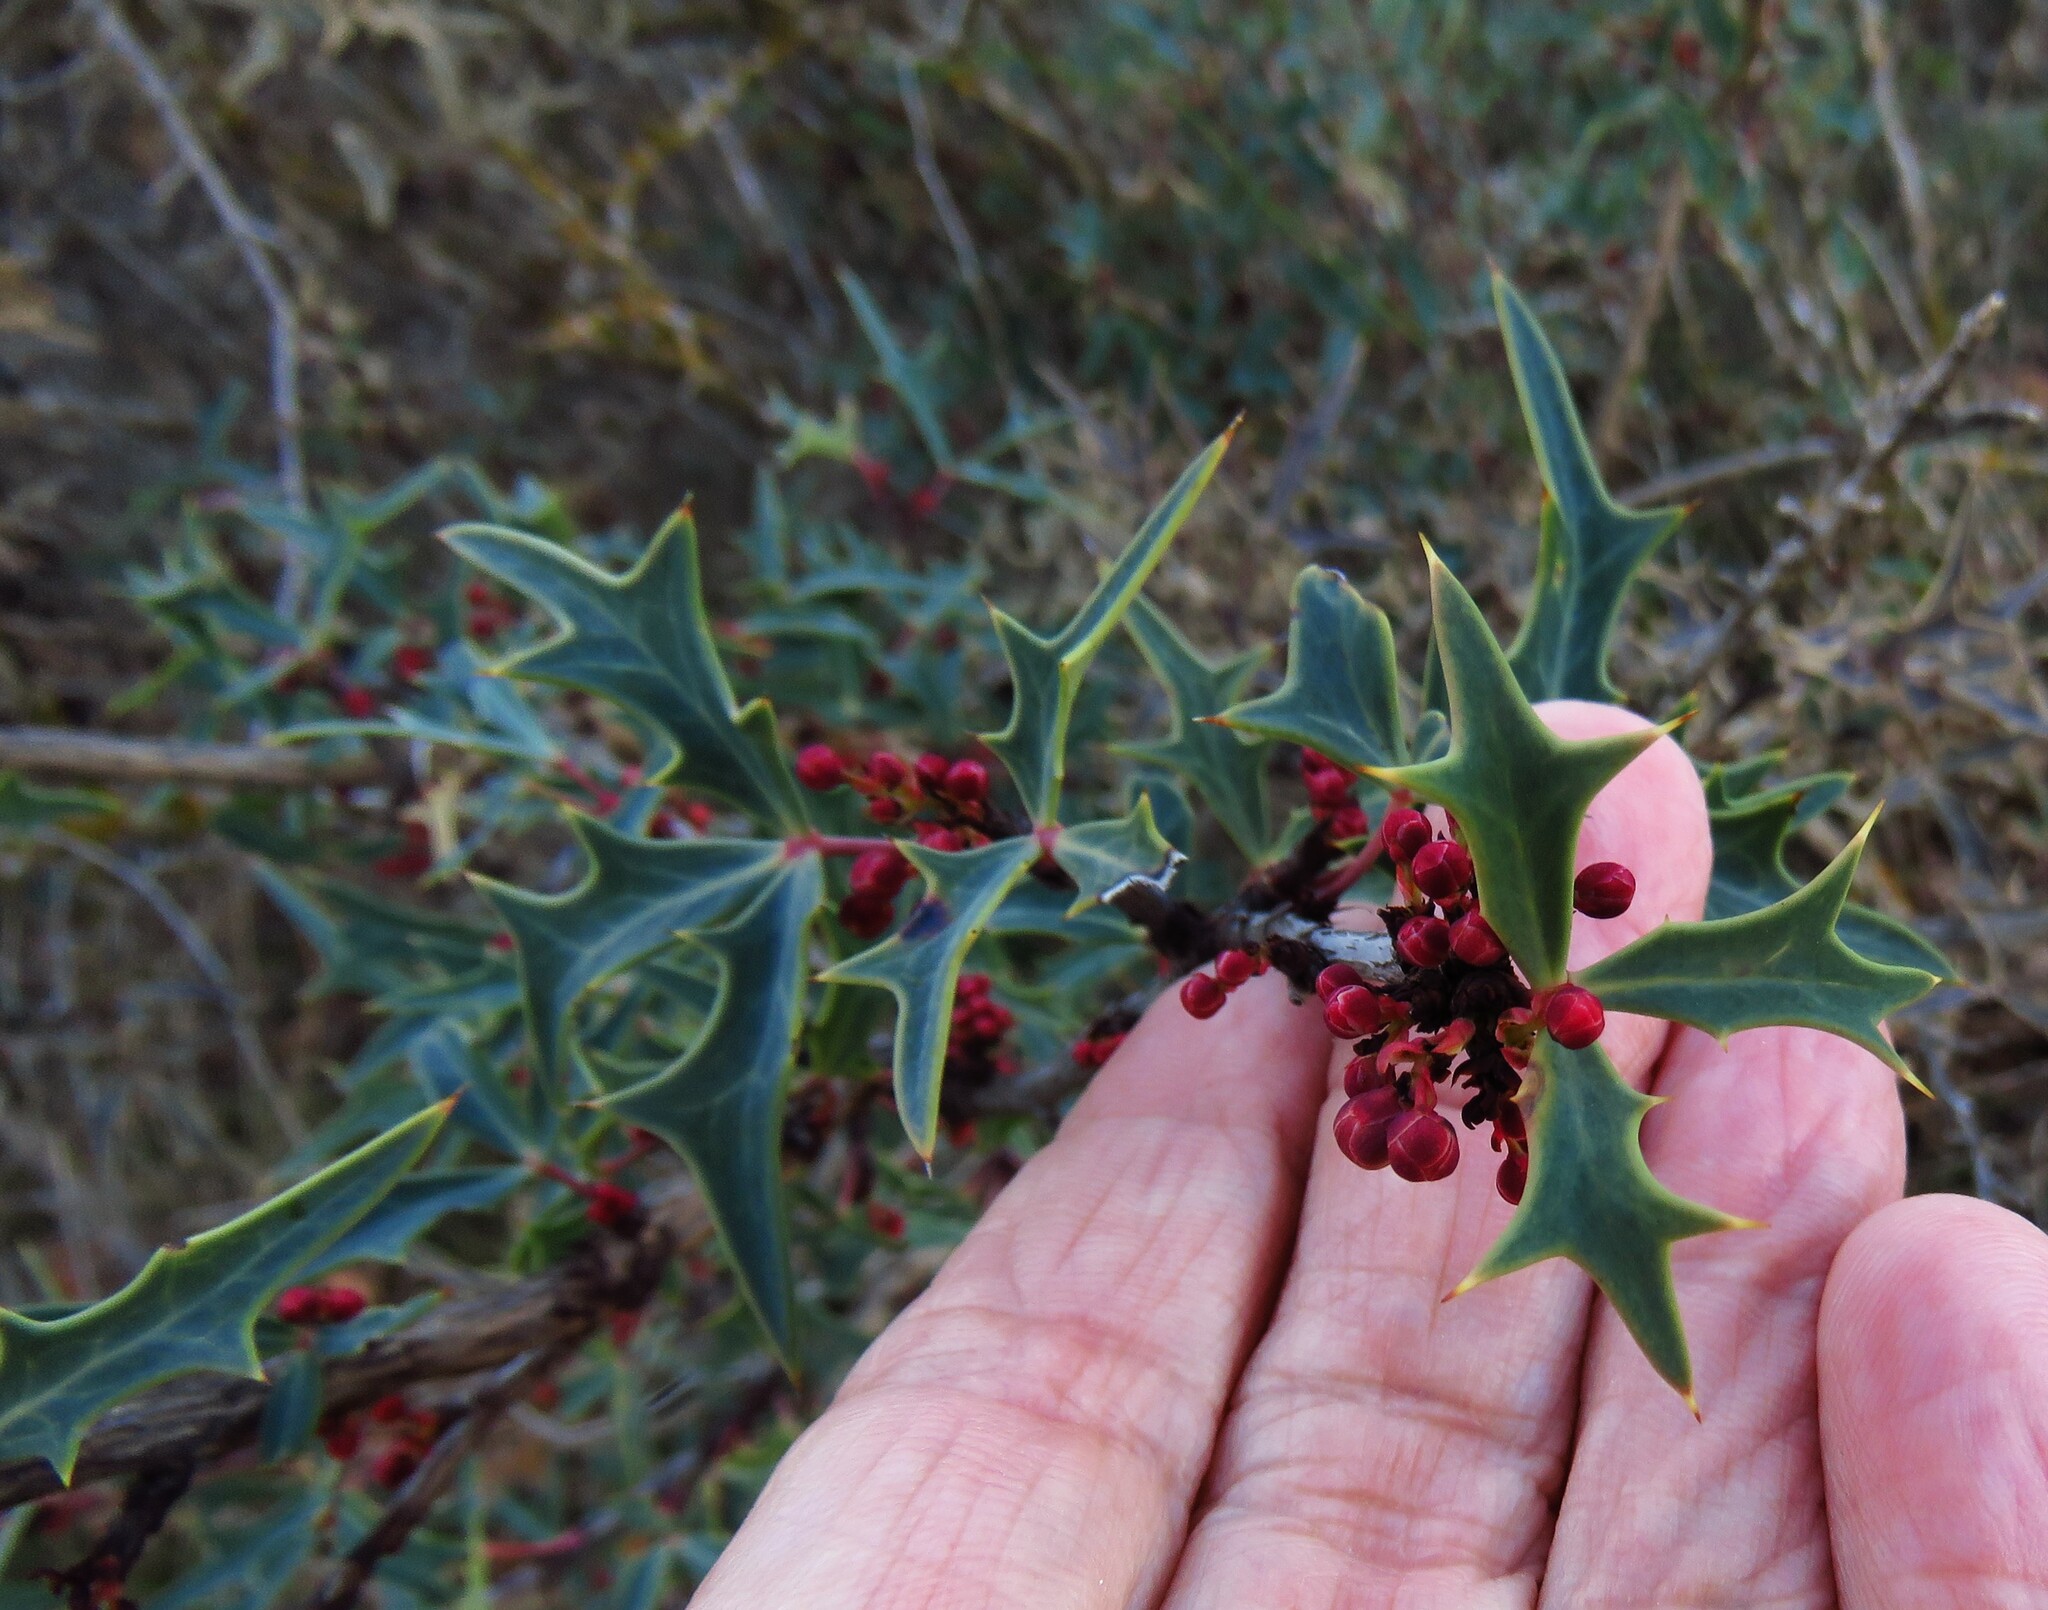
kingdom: Plantae
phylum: Tracheophyta
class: Magnoliopsida
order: Ranunculales
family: Berberidaceae
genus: Alloberberis
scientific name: Alloberberis trifoliolata
